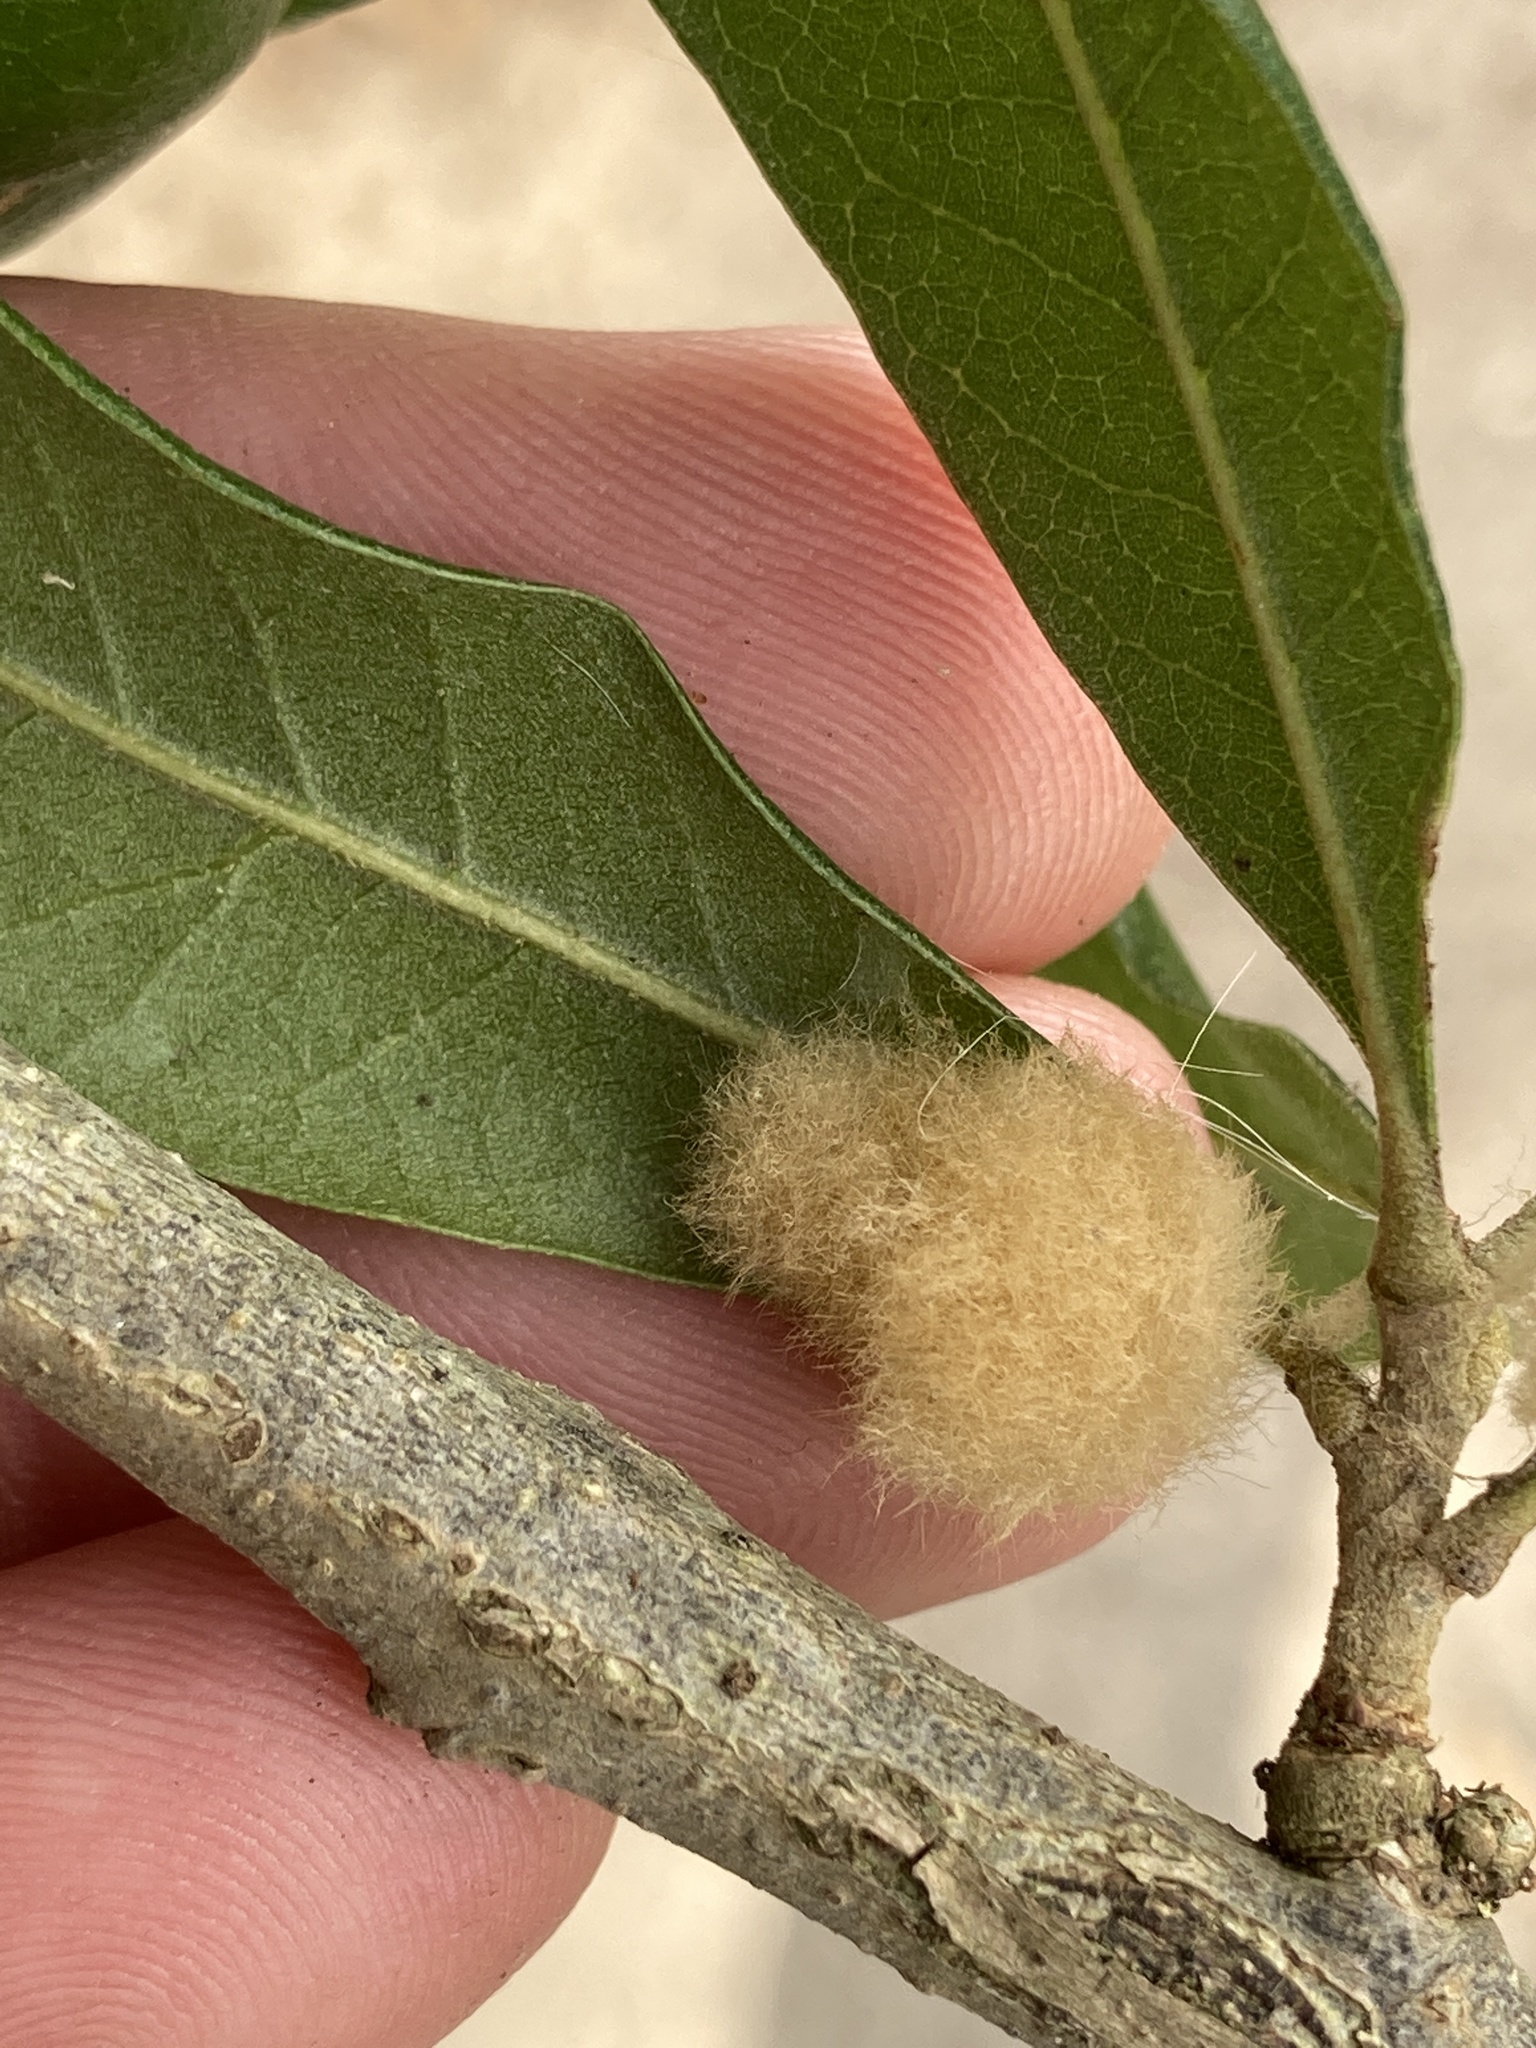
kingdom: Animalia
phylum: Arthropoda
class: Insecta
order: Hymenoptera
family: Cynipidae
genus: Andricus
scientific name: Andricus Druon quercuslanigerum
